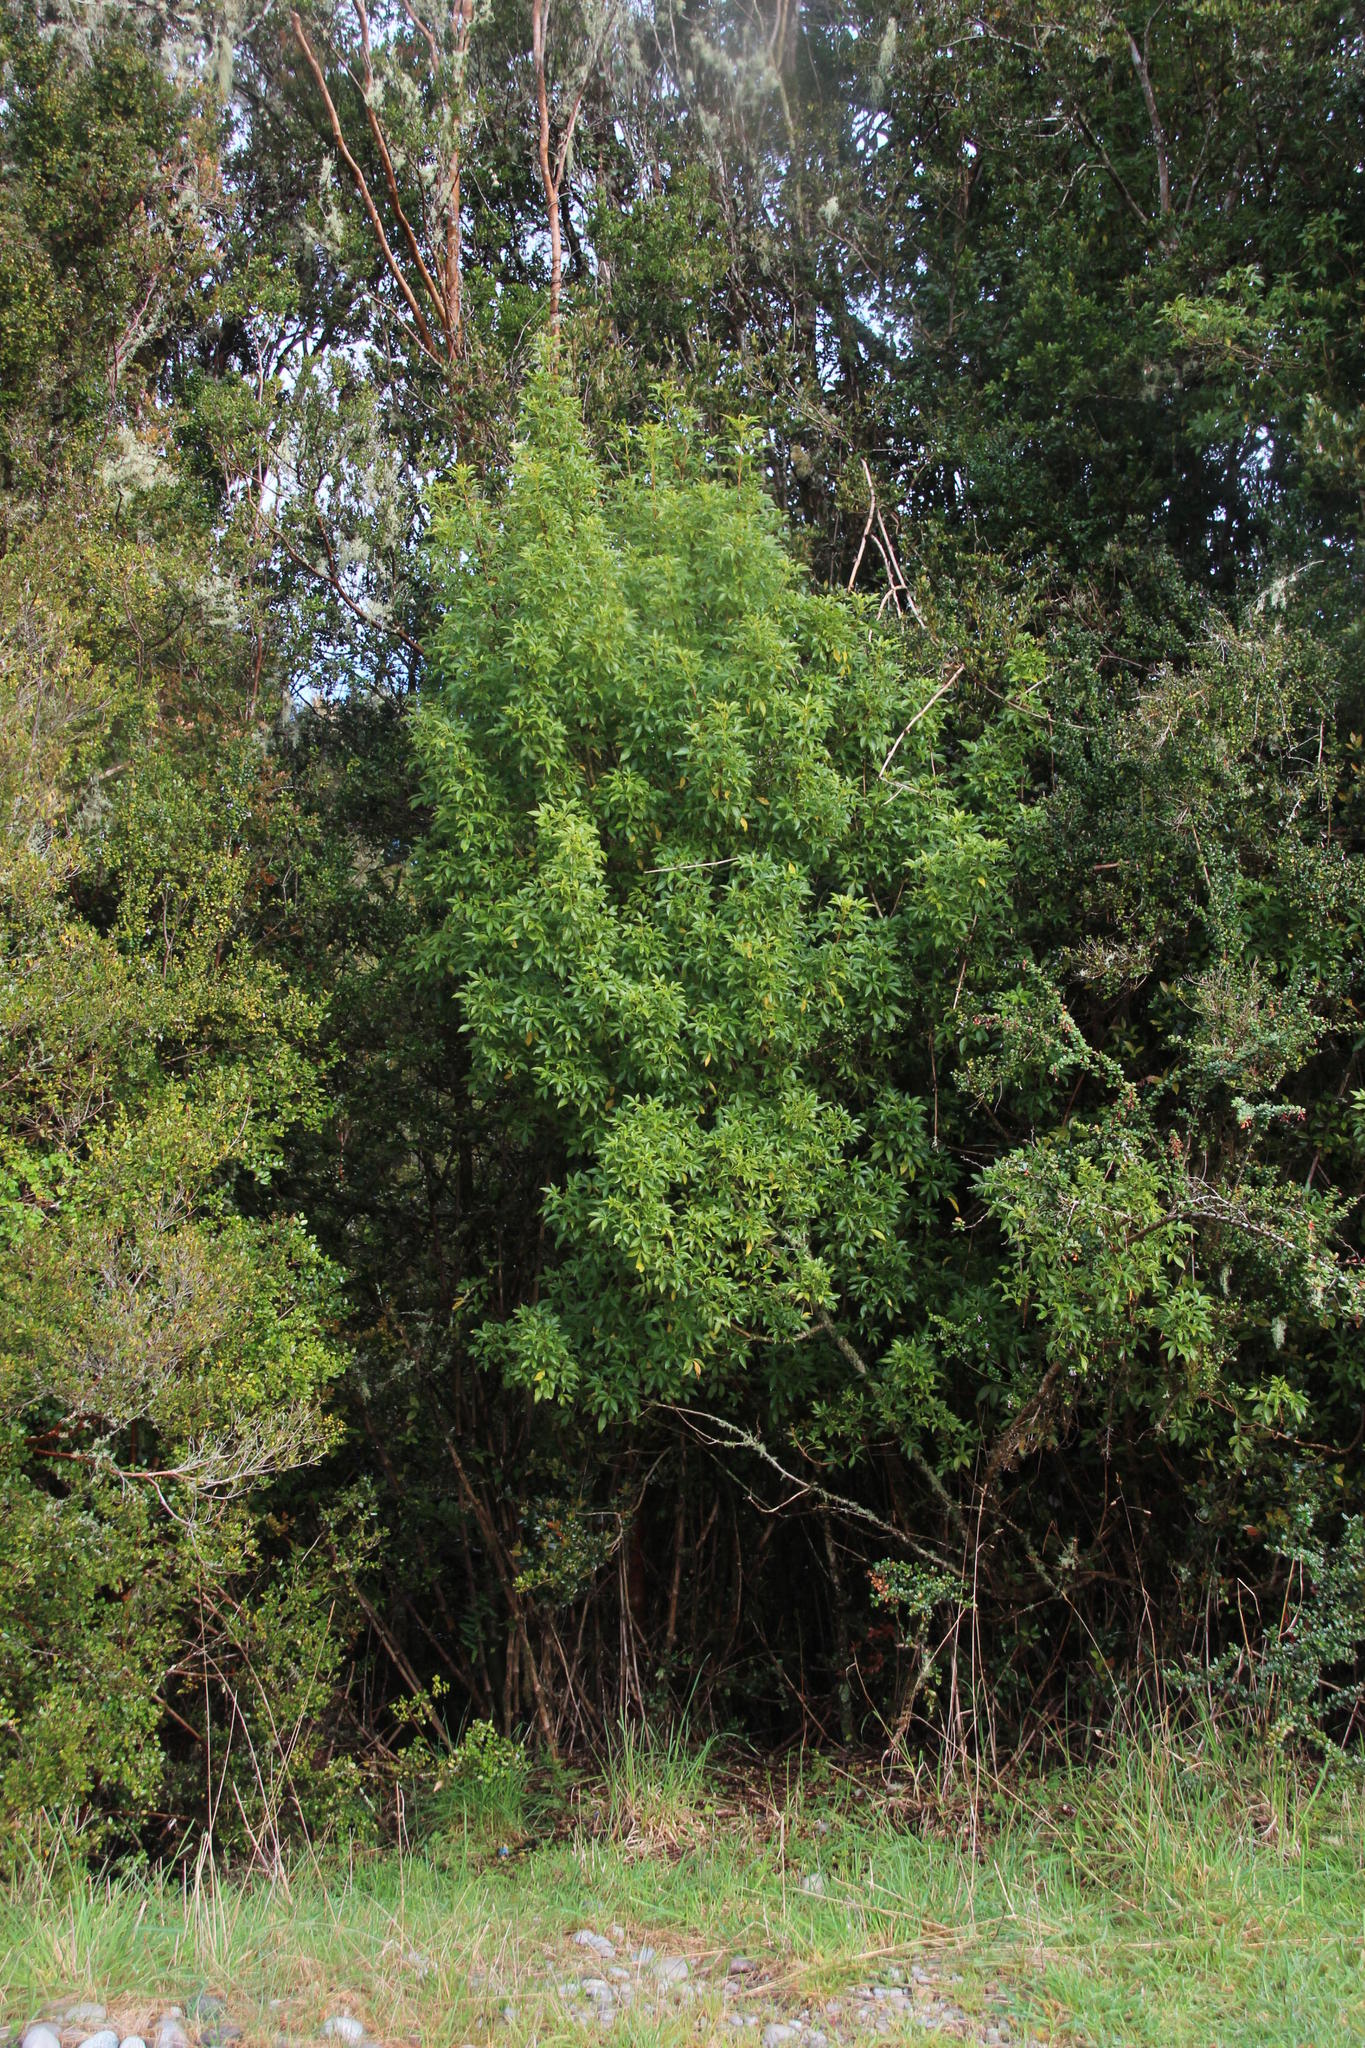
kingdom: Plantae
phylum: Tracheophyta
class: Magnoliopsida
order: Apiales
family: Araliaceae
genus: Raukaua
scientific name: Raukaua laetevirens
